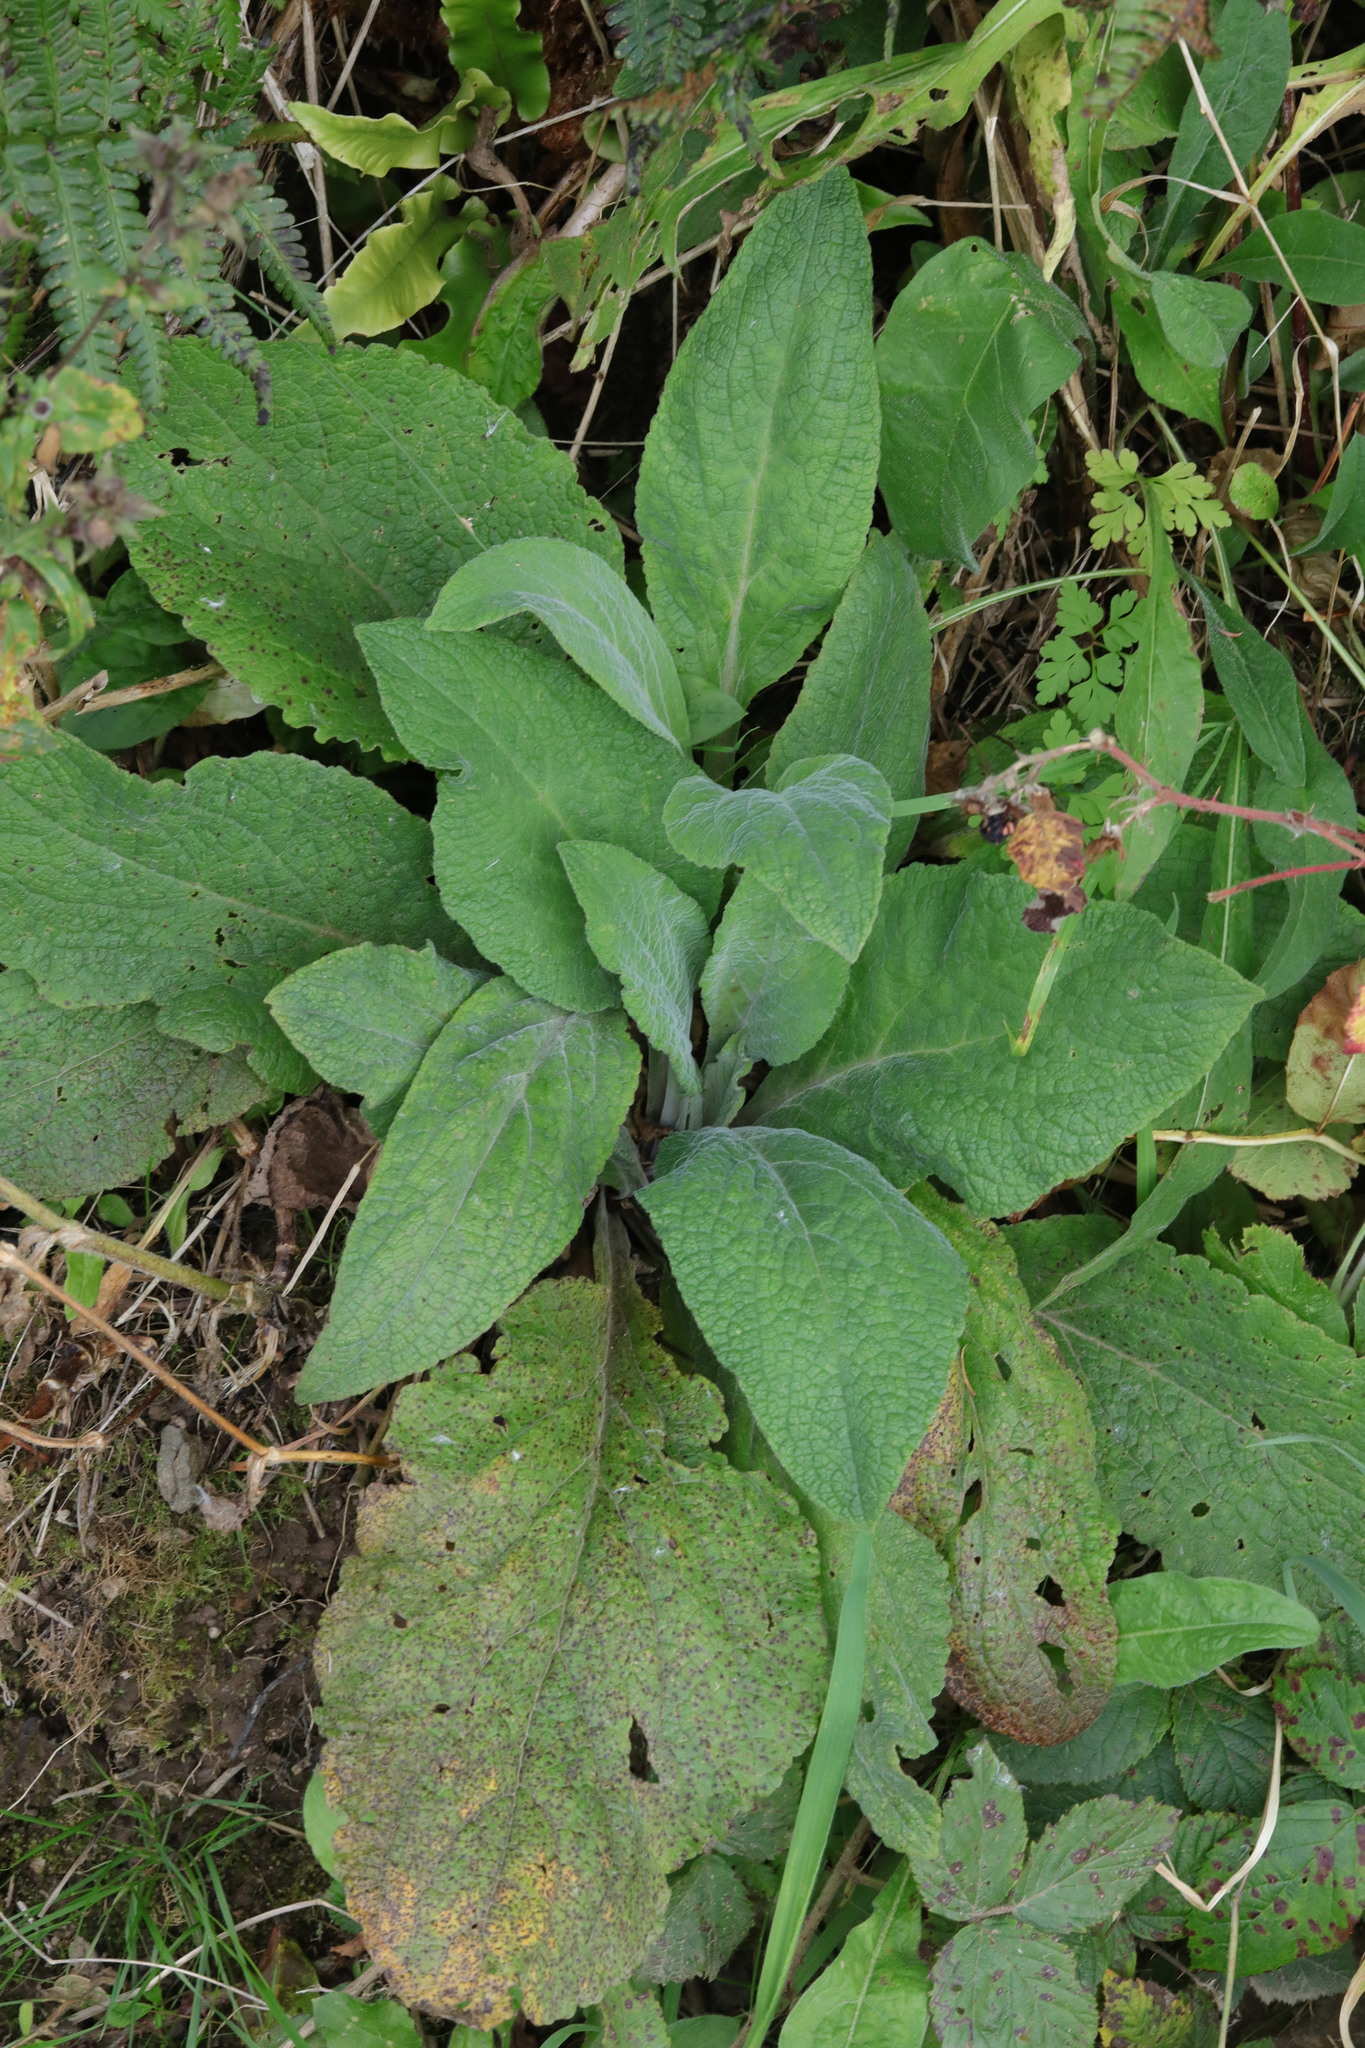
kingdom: Plantae
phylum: Tracheophyta
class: Magnoliopsida
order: Lamiales
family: Plantaginaceae
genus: Digitalis
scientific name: Digitalis purpurea
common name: Foxglove
